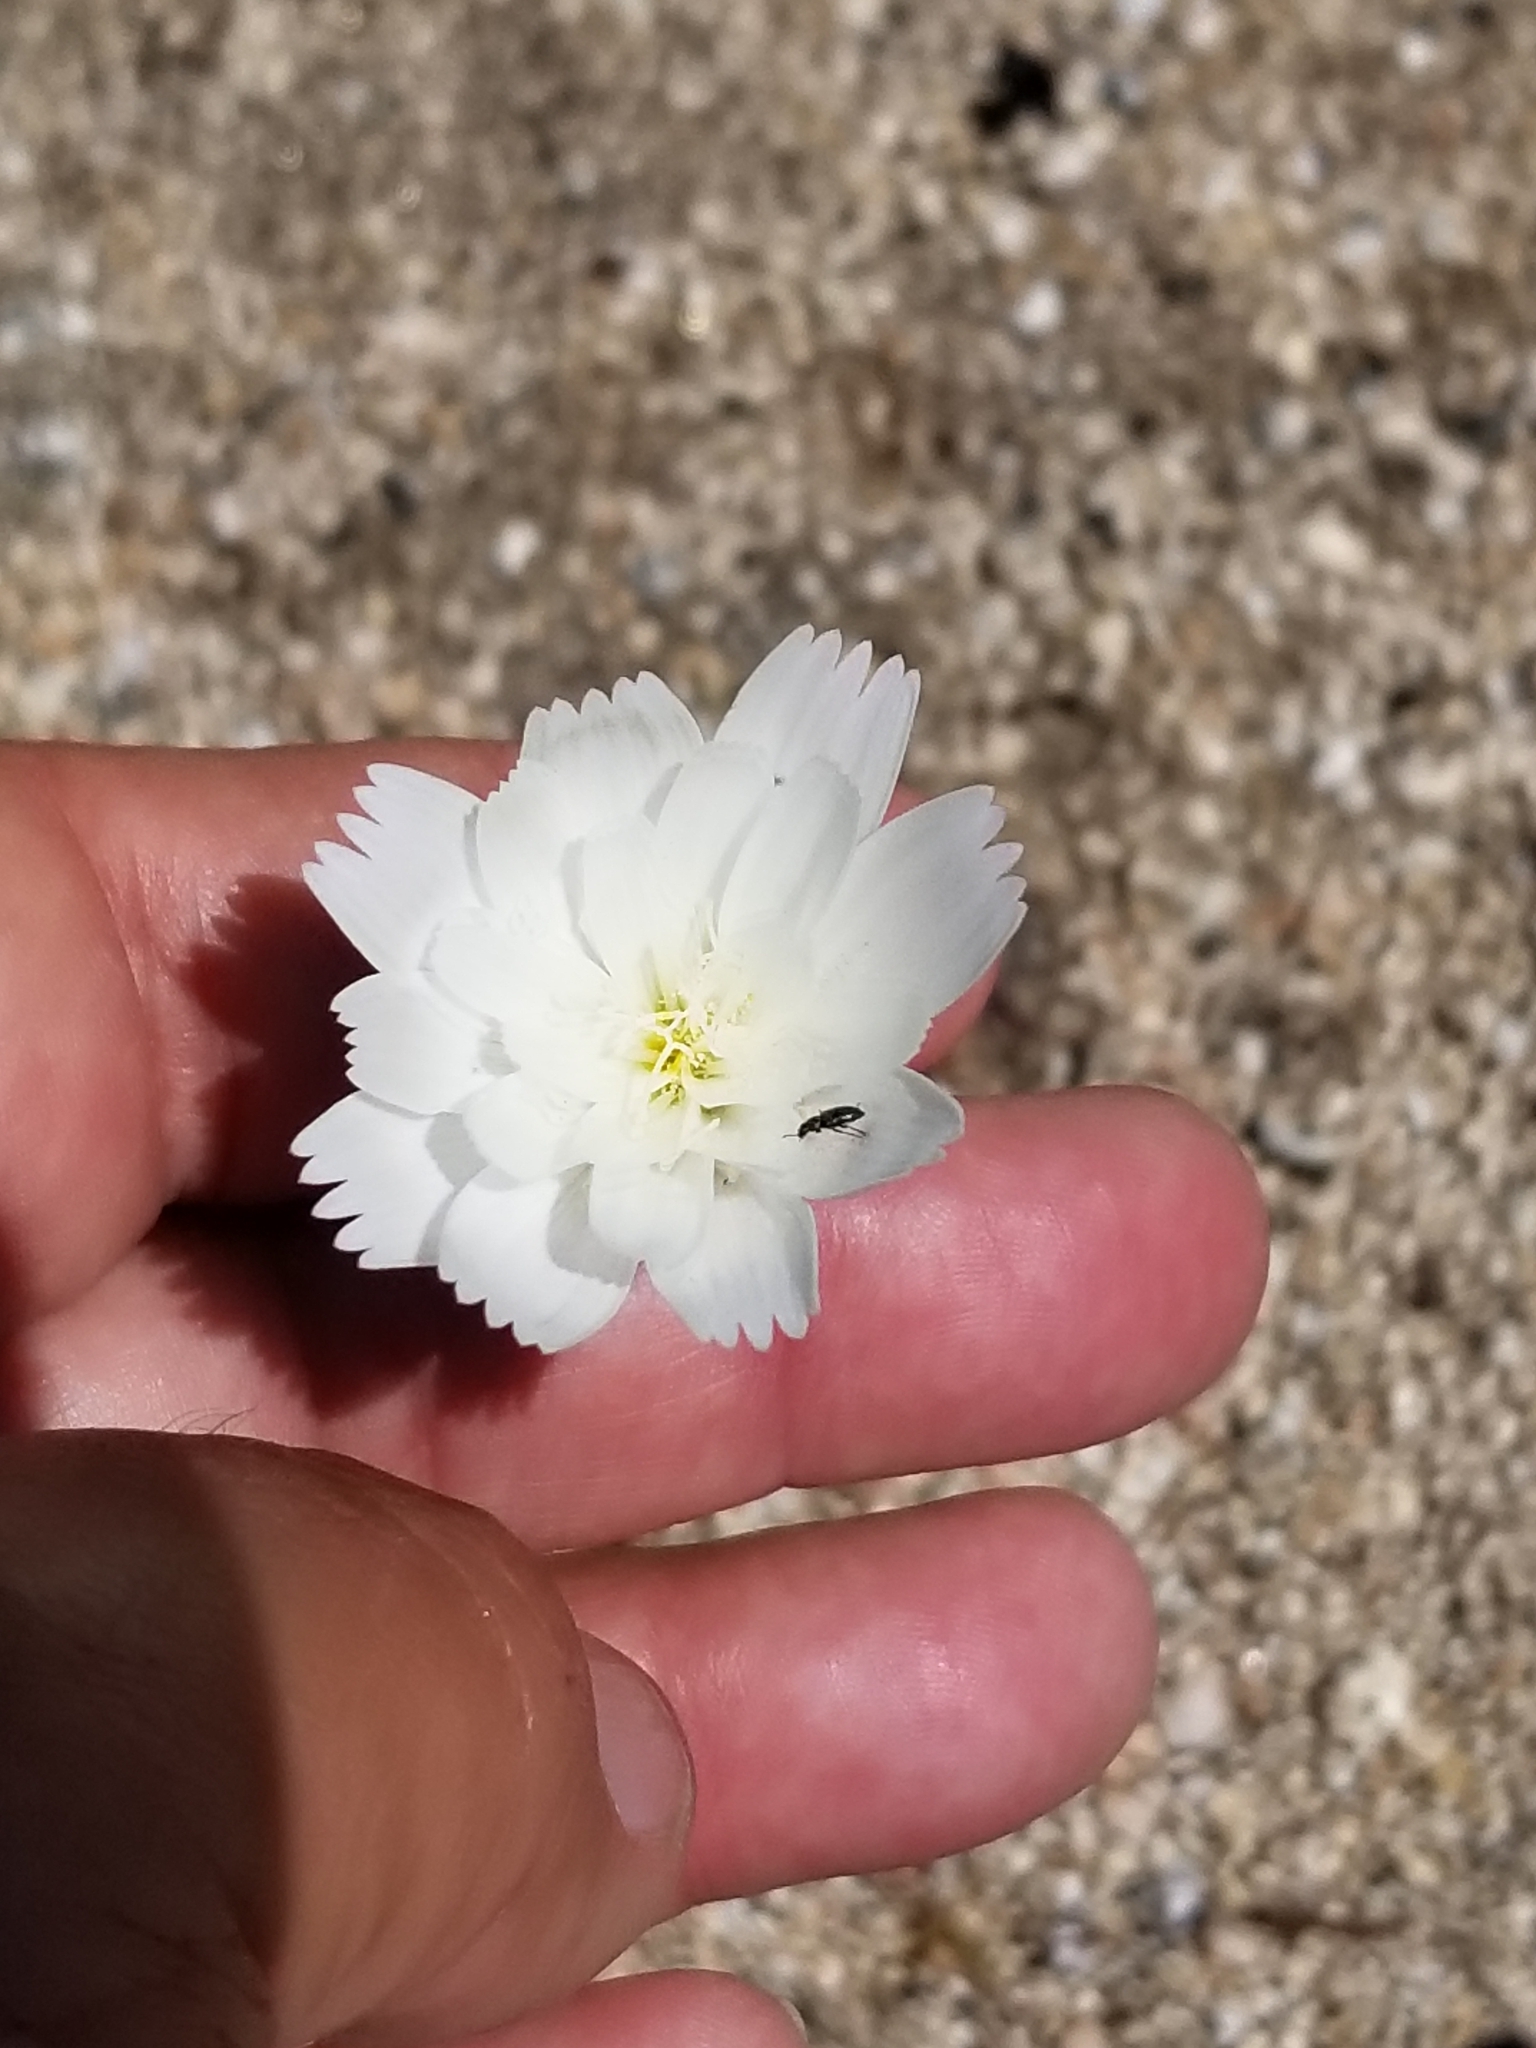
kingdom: Plantae
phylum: Tracheophyta
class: Magnoliopsida
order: Asterales
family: Asteraceae
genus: Rafinesquia
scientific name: Rafinesquia neomexicana
